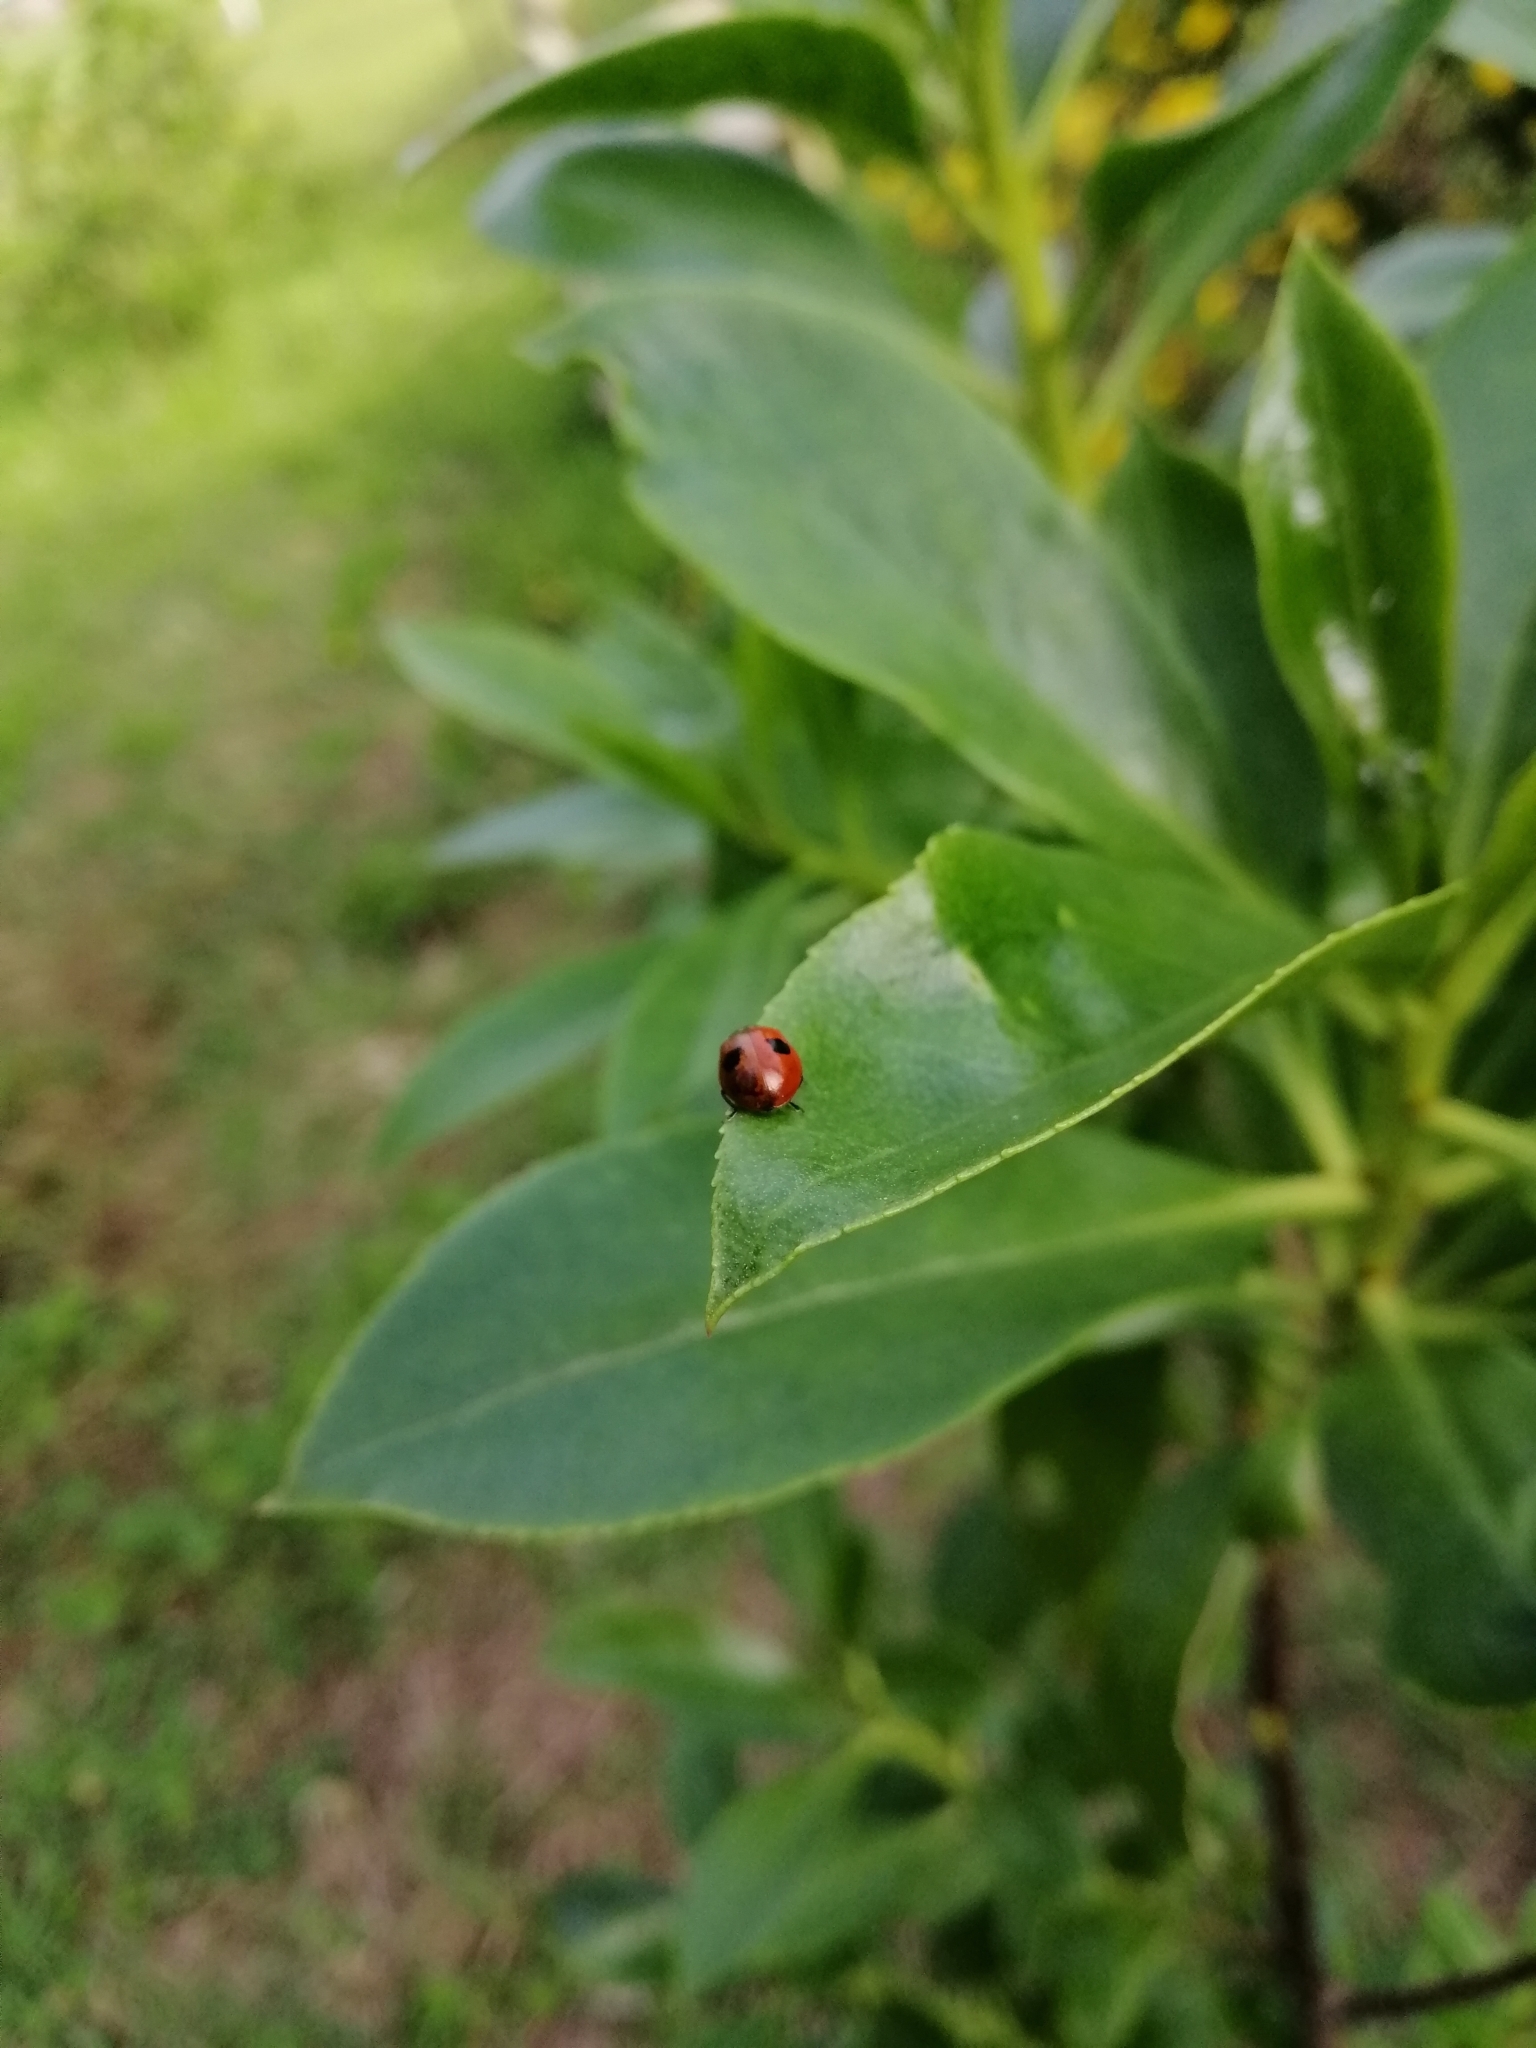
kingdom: Animalia
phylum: Arthropoda
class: Insecta
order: Coleoptera
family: Coccinellidae
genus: Adalia
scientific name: Adalia bipunctata
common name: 2-spot ladybird
